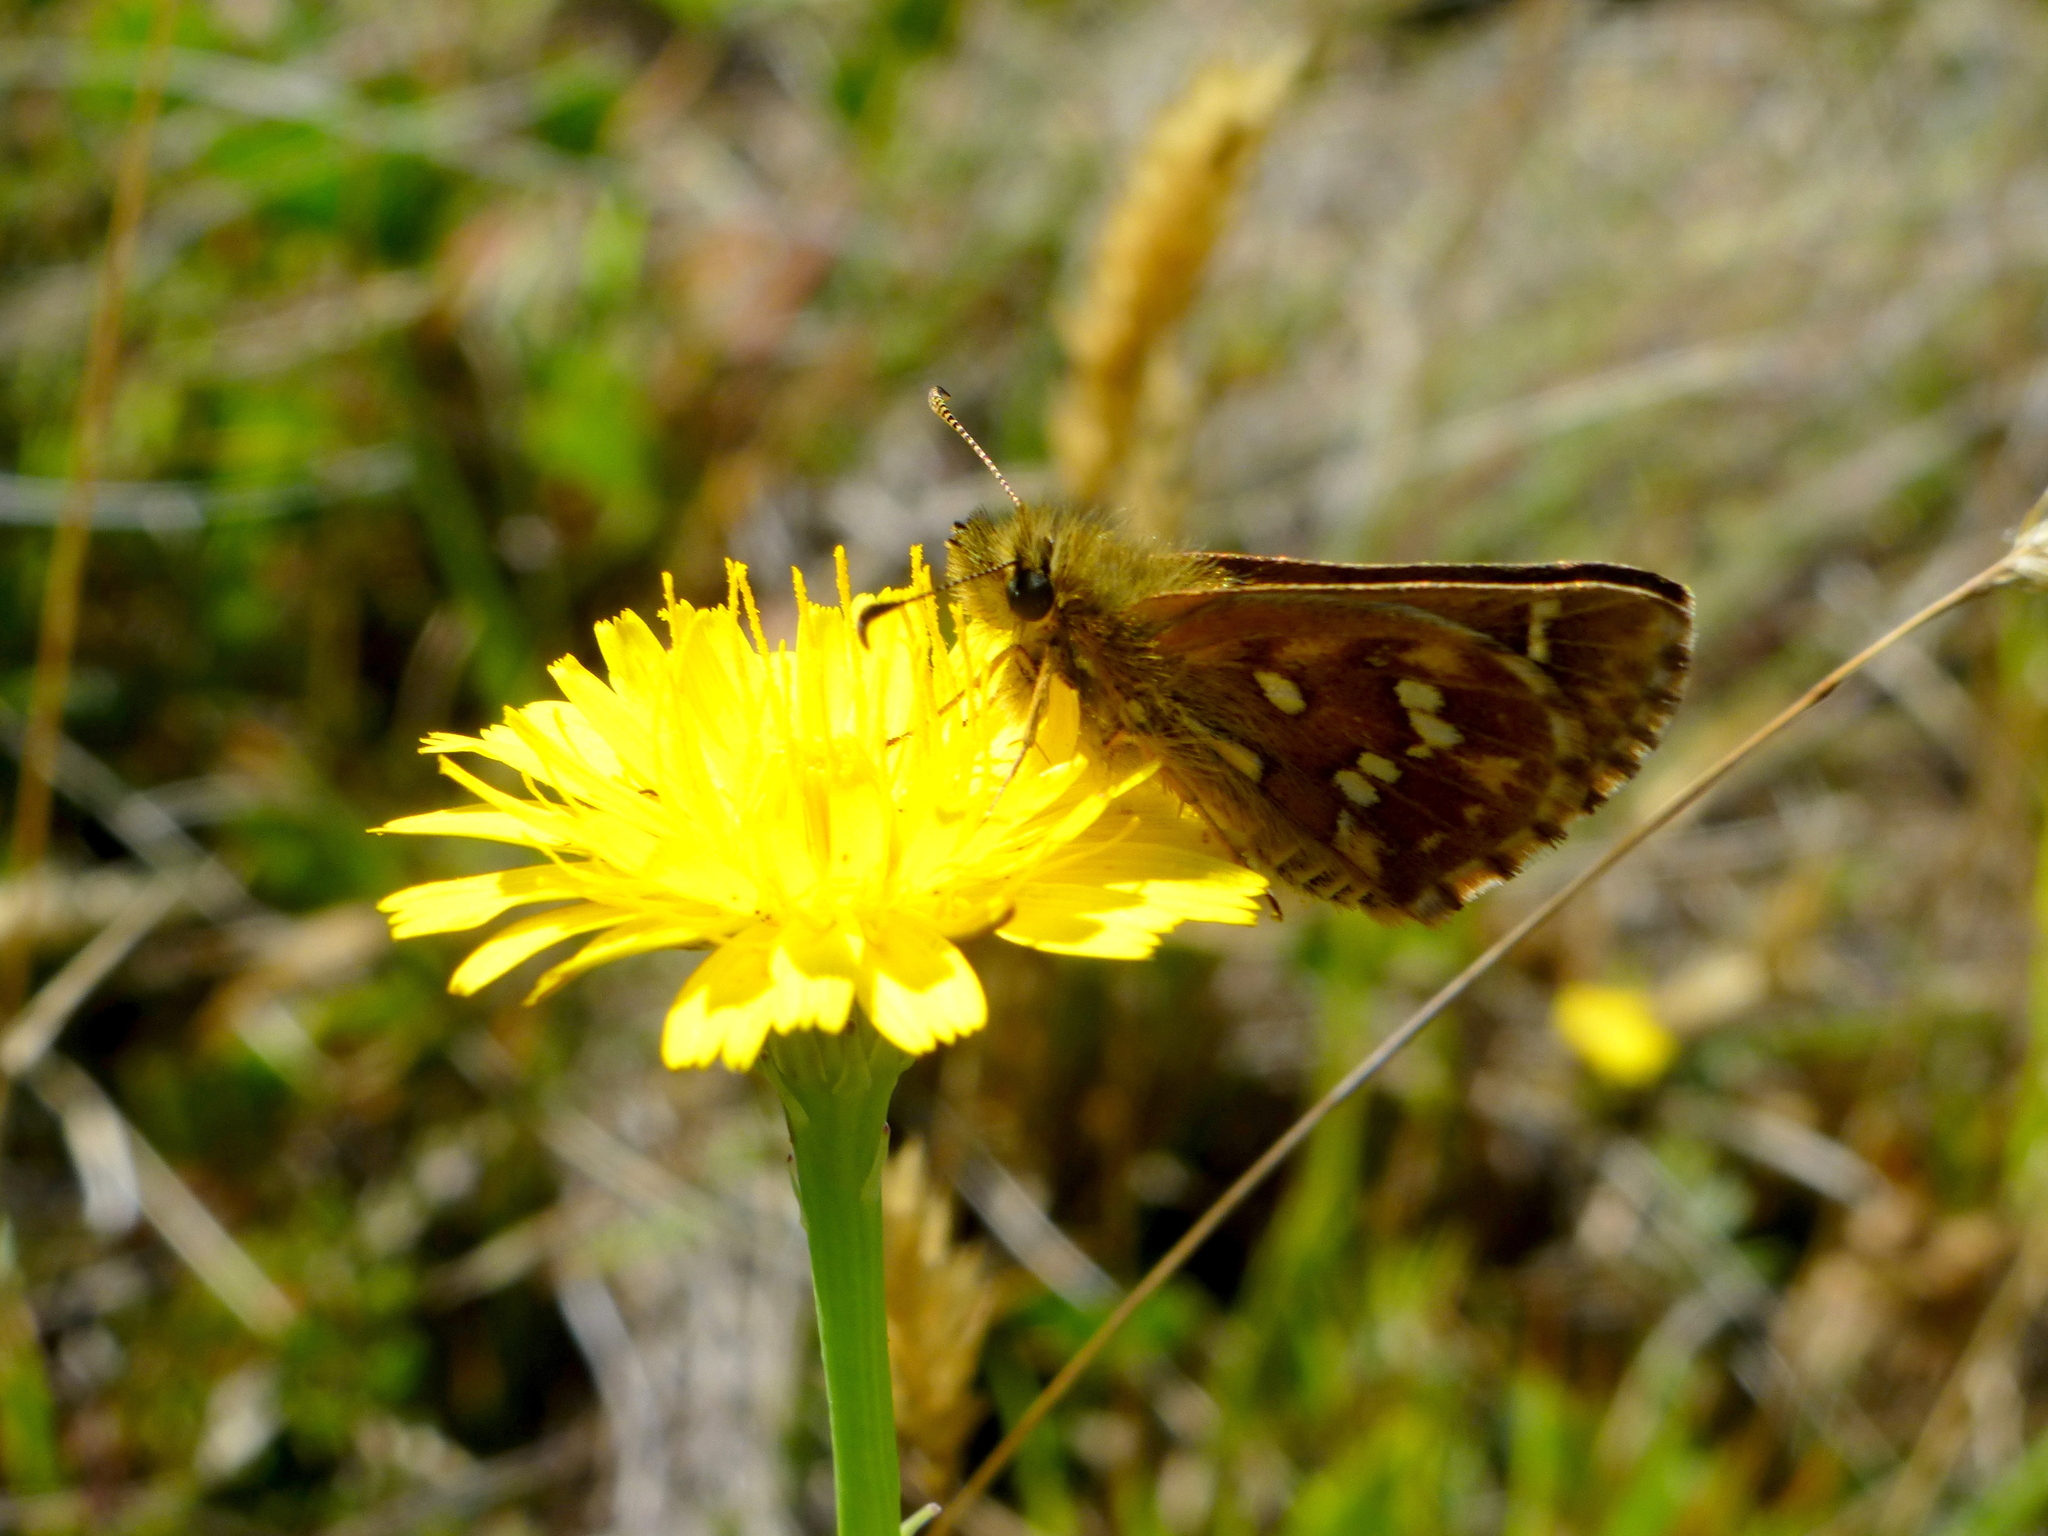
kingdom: Animalia
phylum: Arthropoda
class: Insecta
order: Lepidoptera
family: Hesperiidae
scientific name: Hesperiidae
